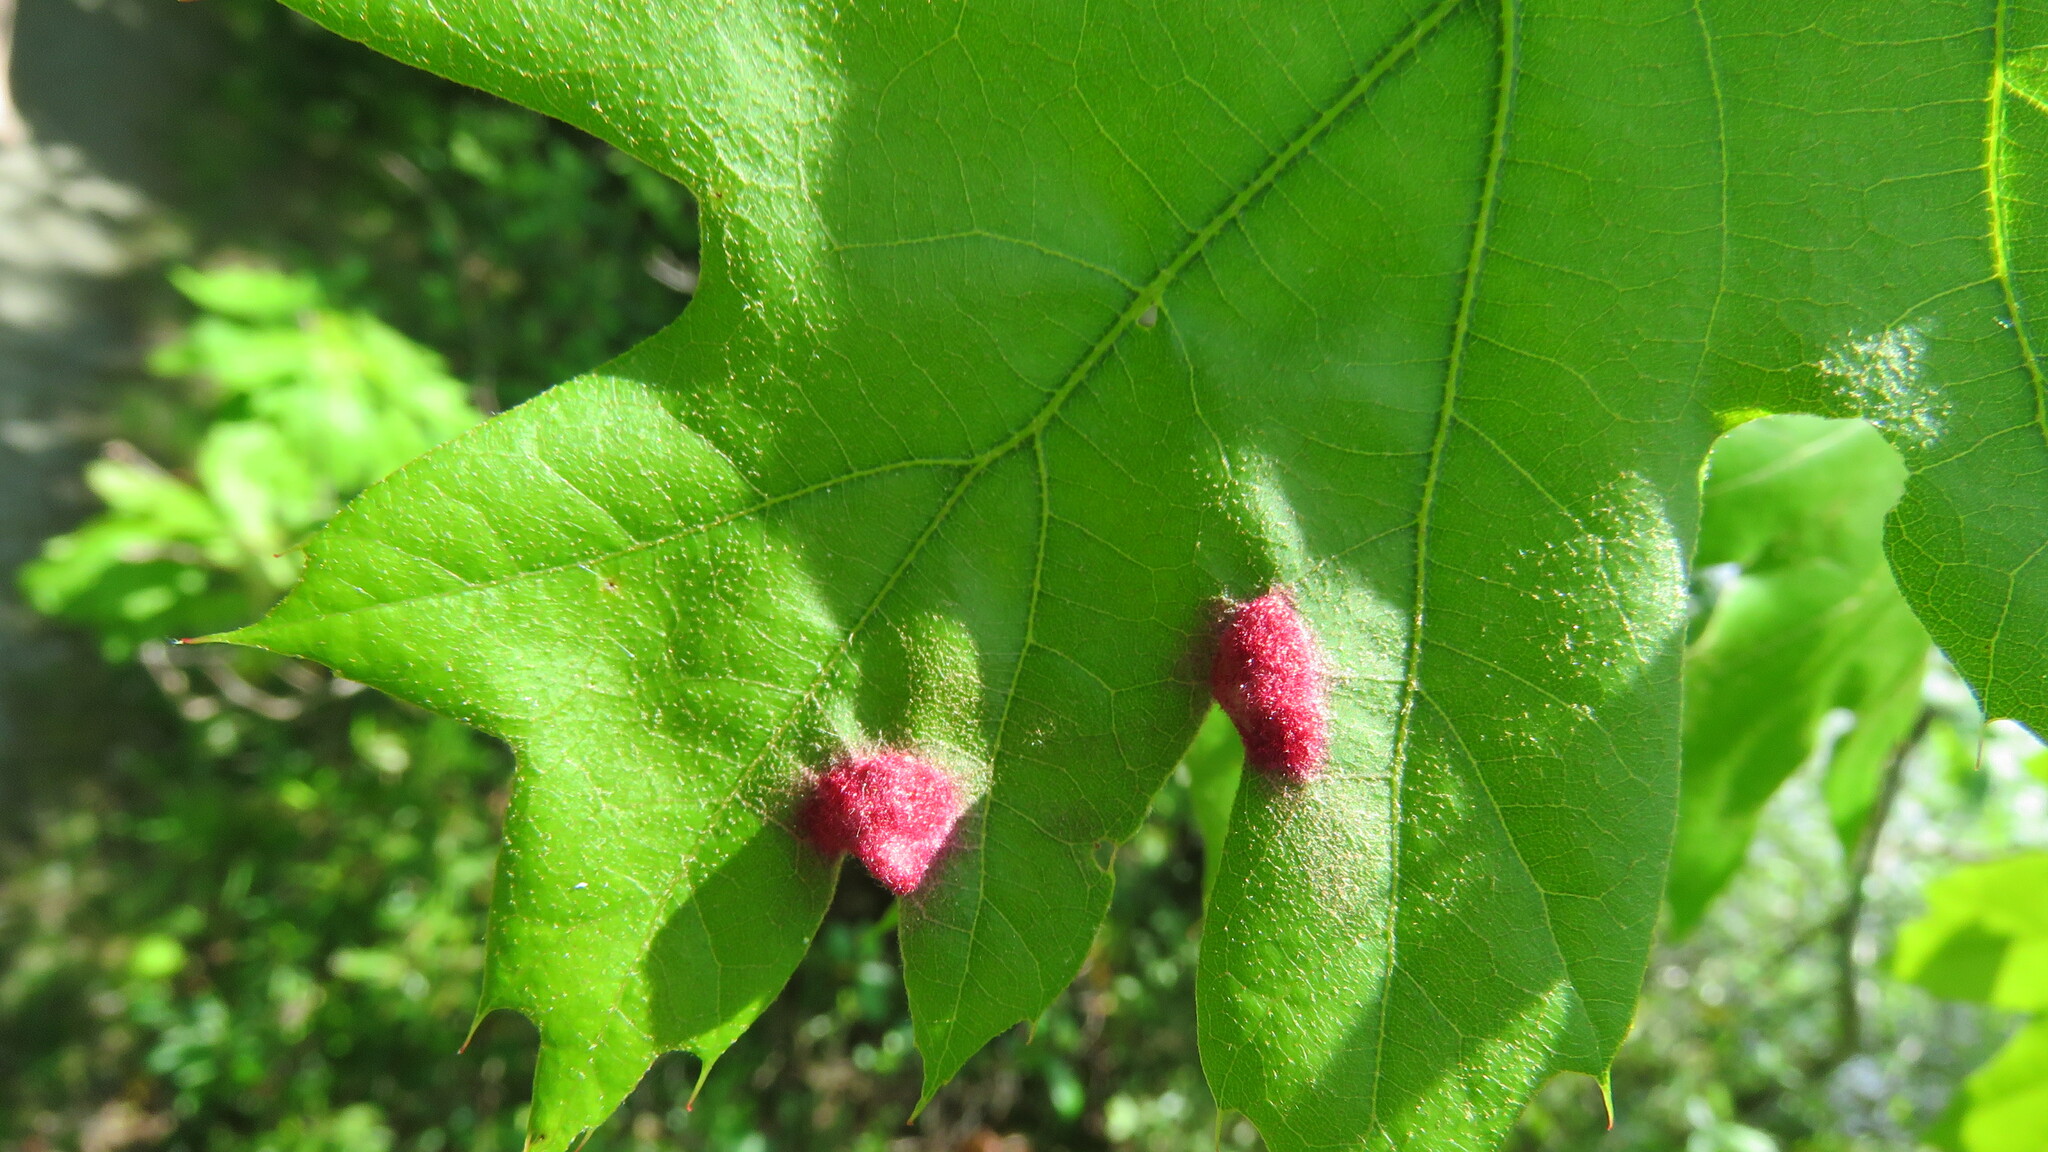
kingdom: Animalia
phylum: Arthropoda
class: Arachnida
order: Trombidiformes
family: Eriophyidae
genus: Aceria
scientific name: Aceria
